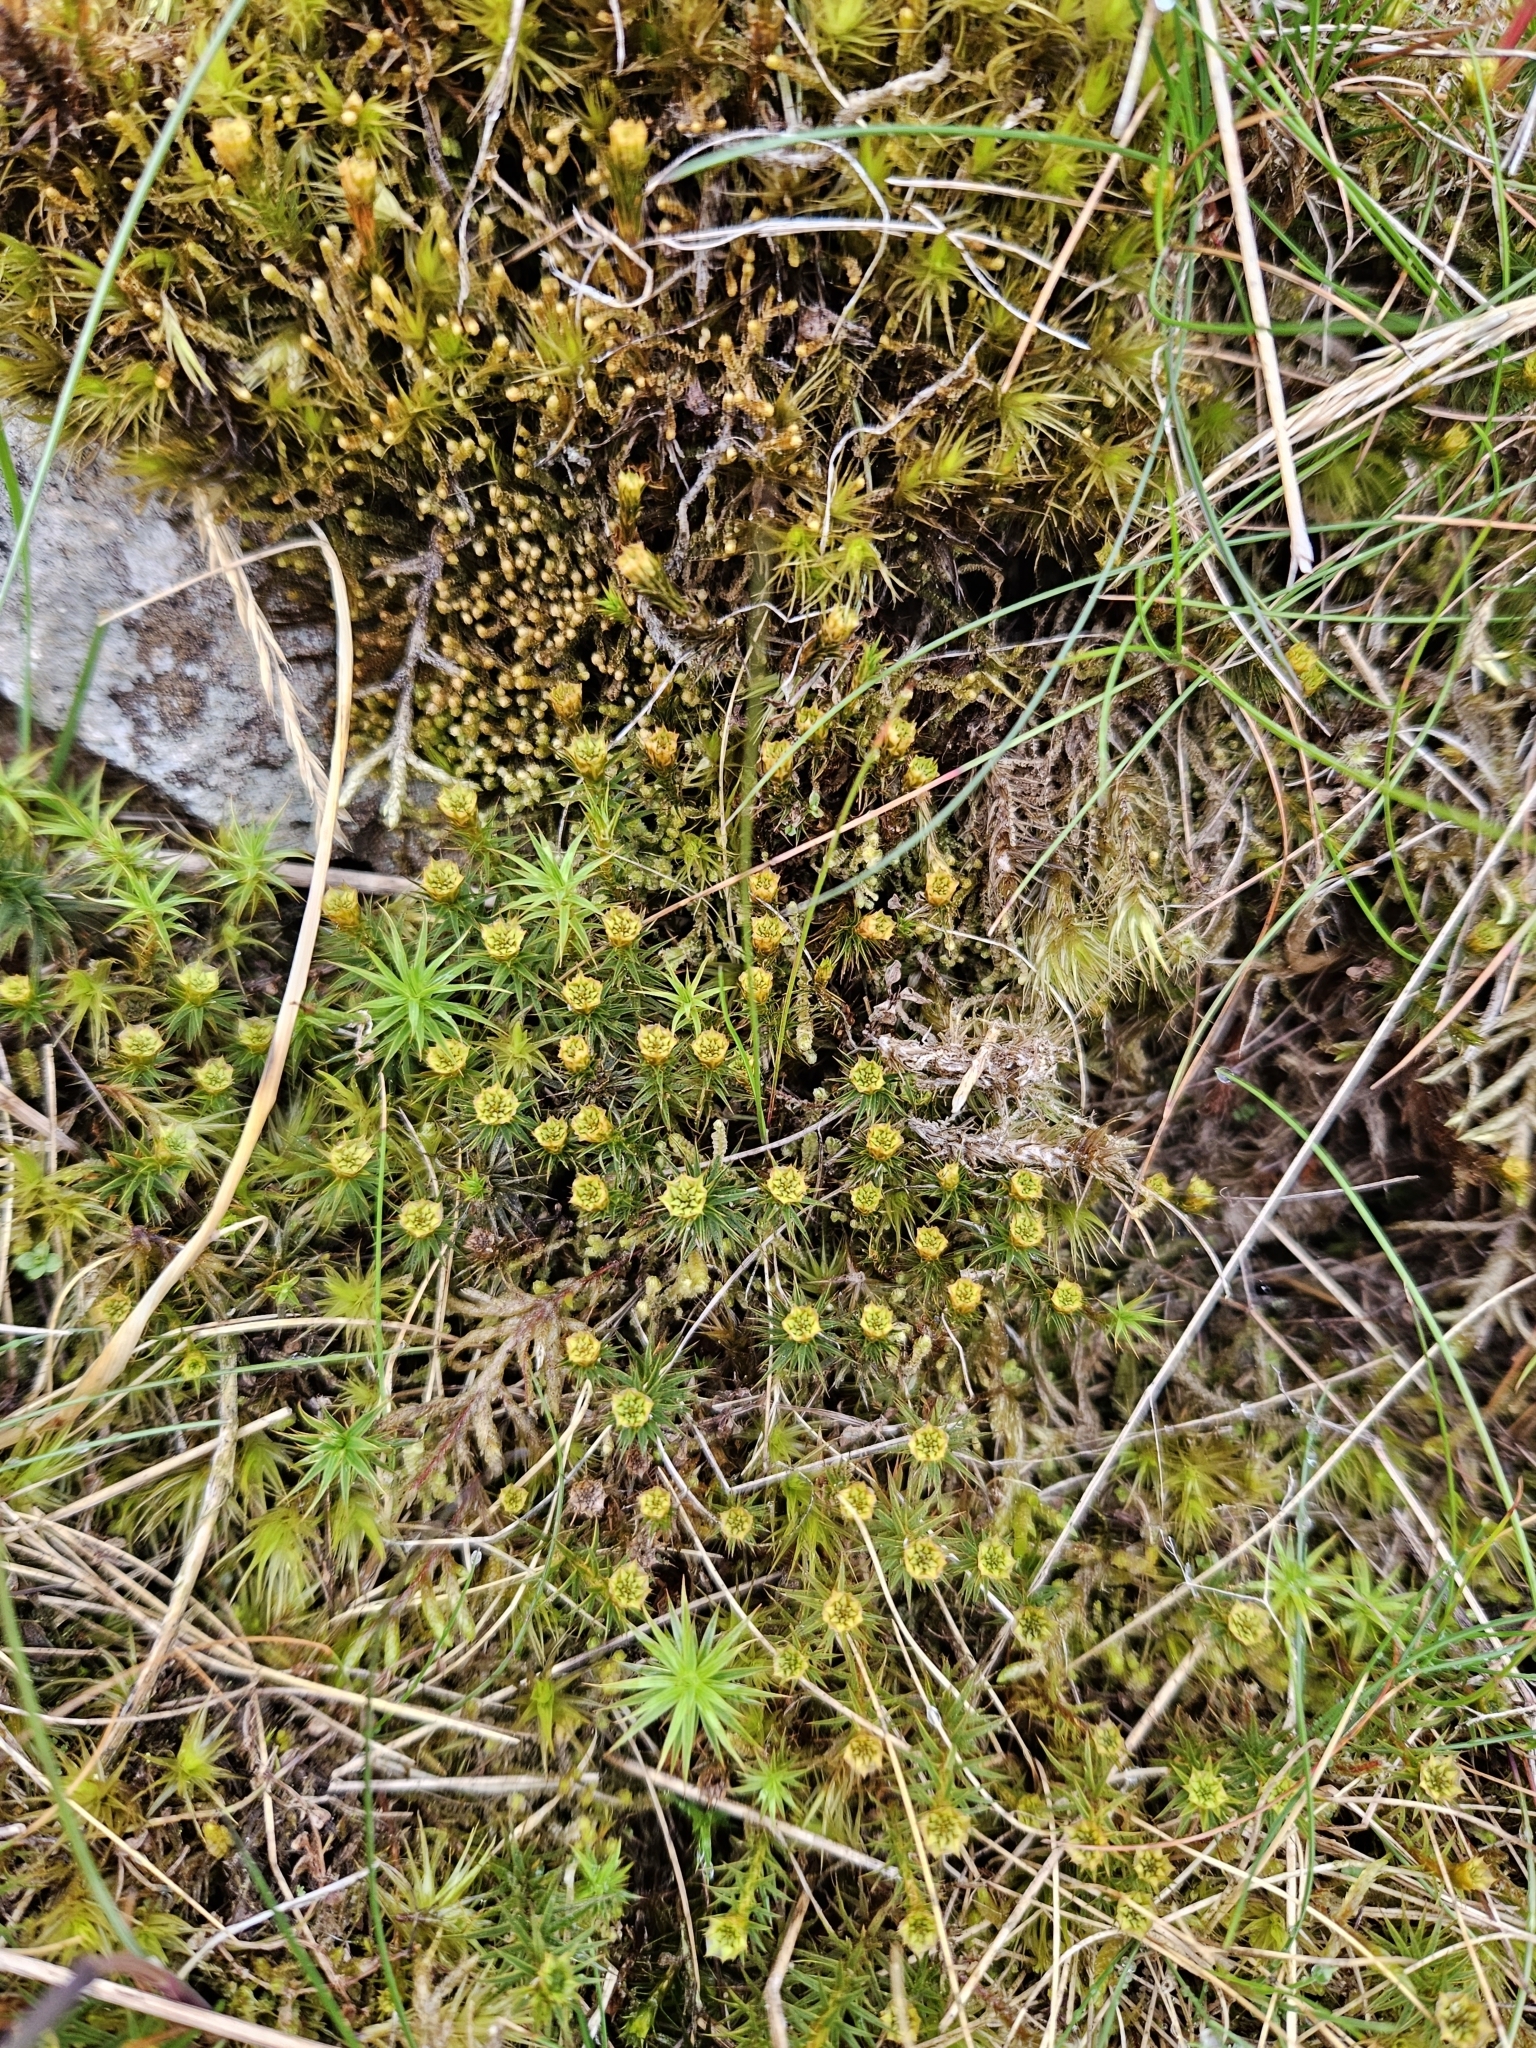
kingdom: Plantae
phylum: Bryophyta
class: Polytrichopsida
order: Polytrichales
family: Polytrichaceae
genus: Polytrichum
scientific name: Polytrichum juniperinum
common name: Juniper haircap moss
